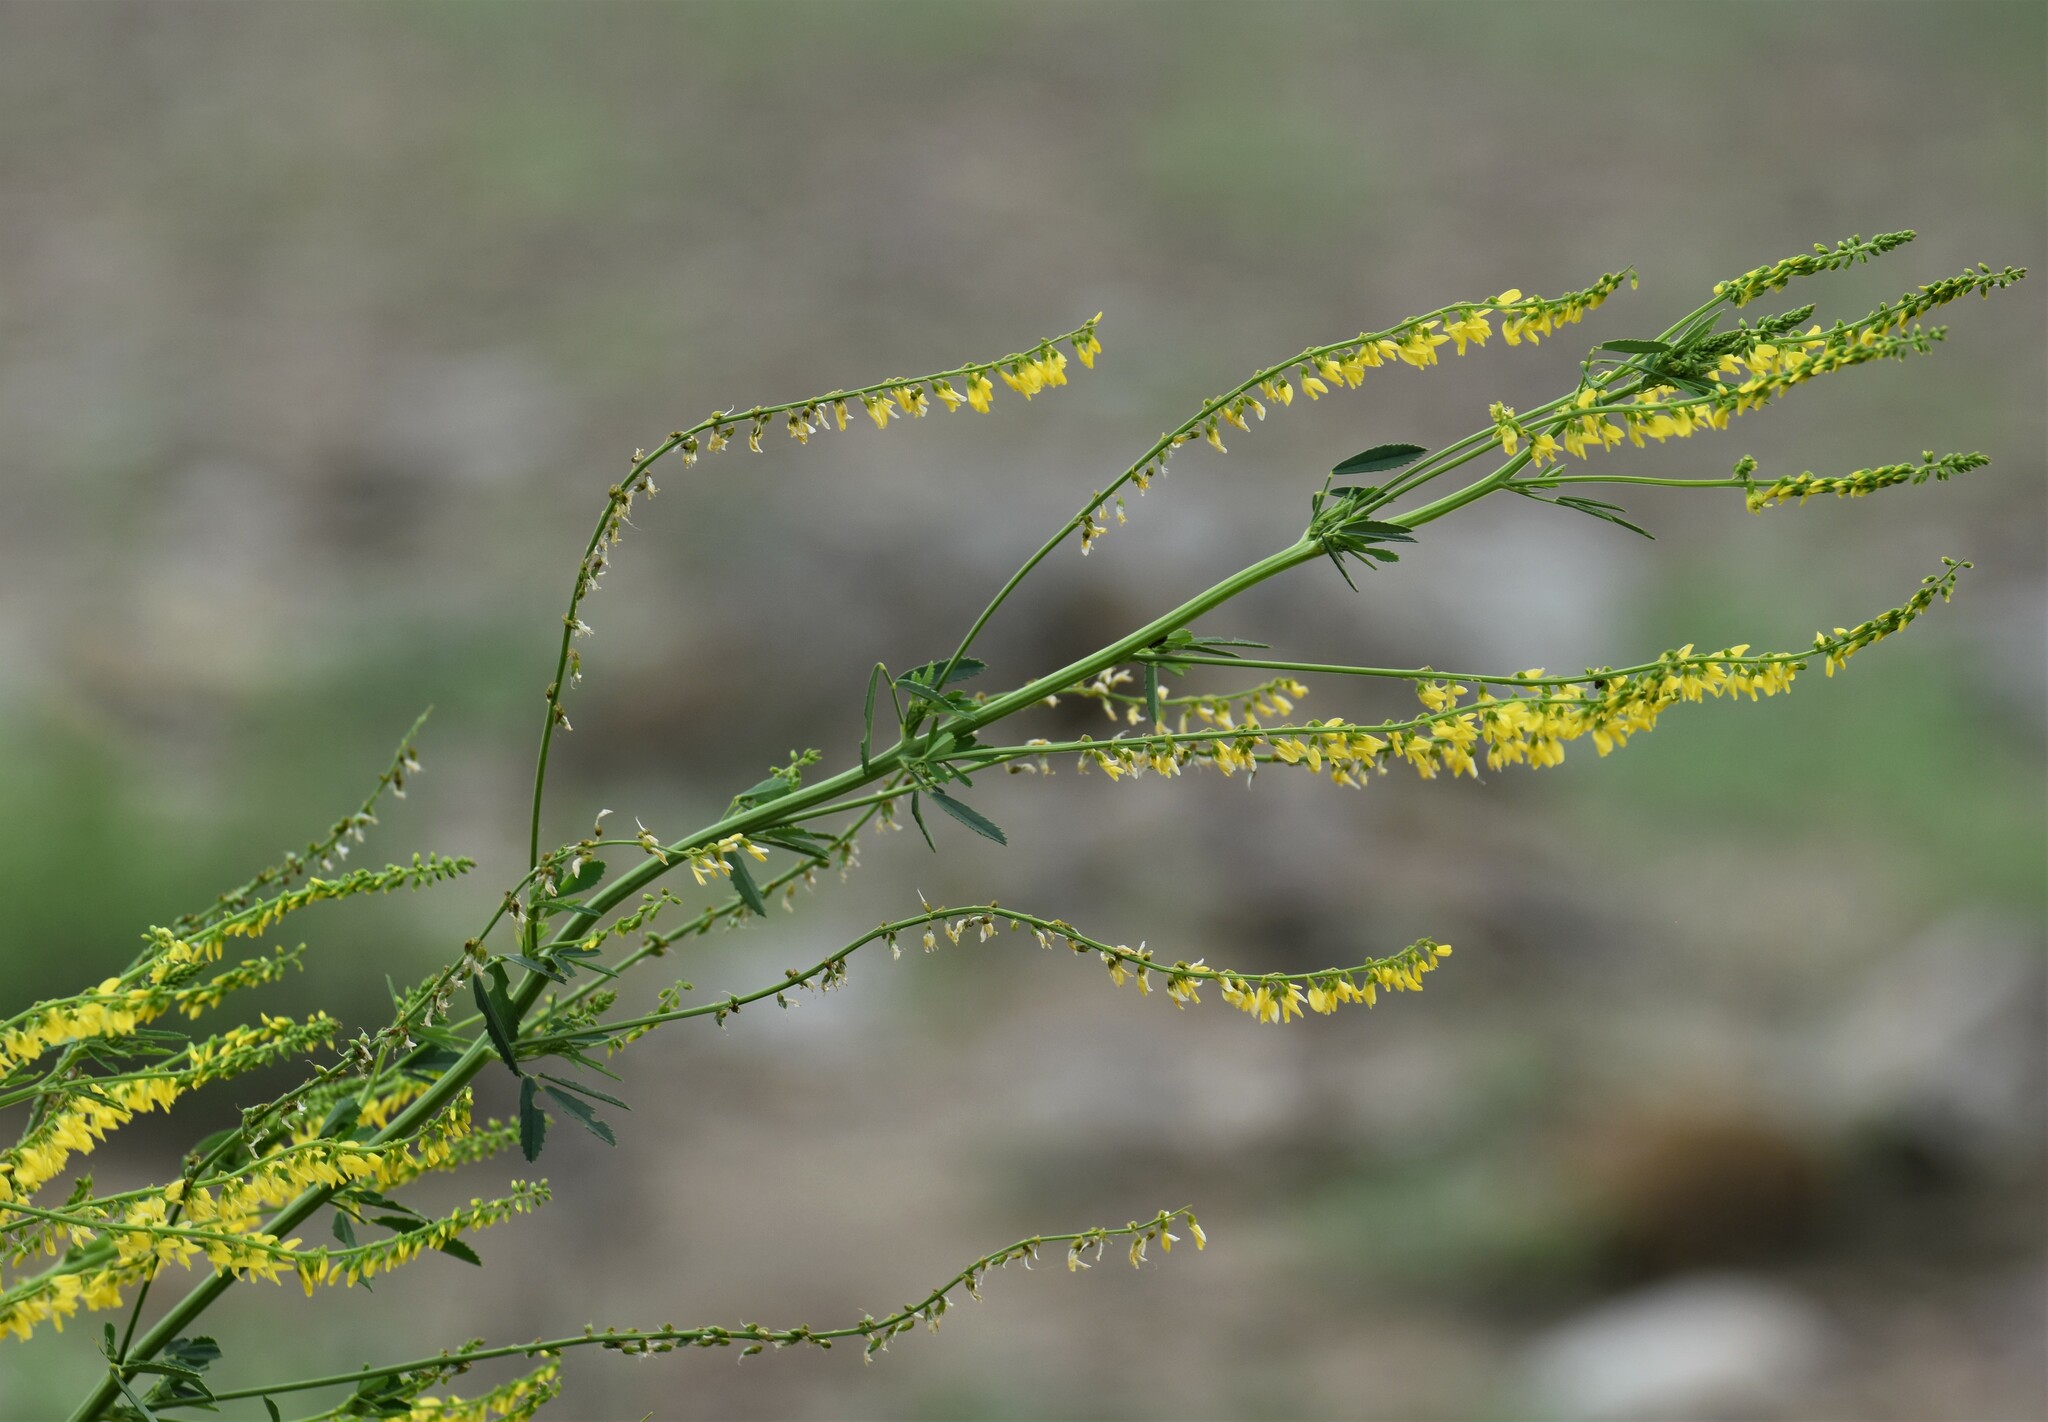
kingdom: Plantae
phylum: Tracheophyta
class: Magnoliopsida
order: Fabales
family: Fabaceae
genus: Melilotus
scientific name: Melilotus officinalis
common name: Sweetclover
